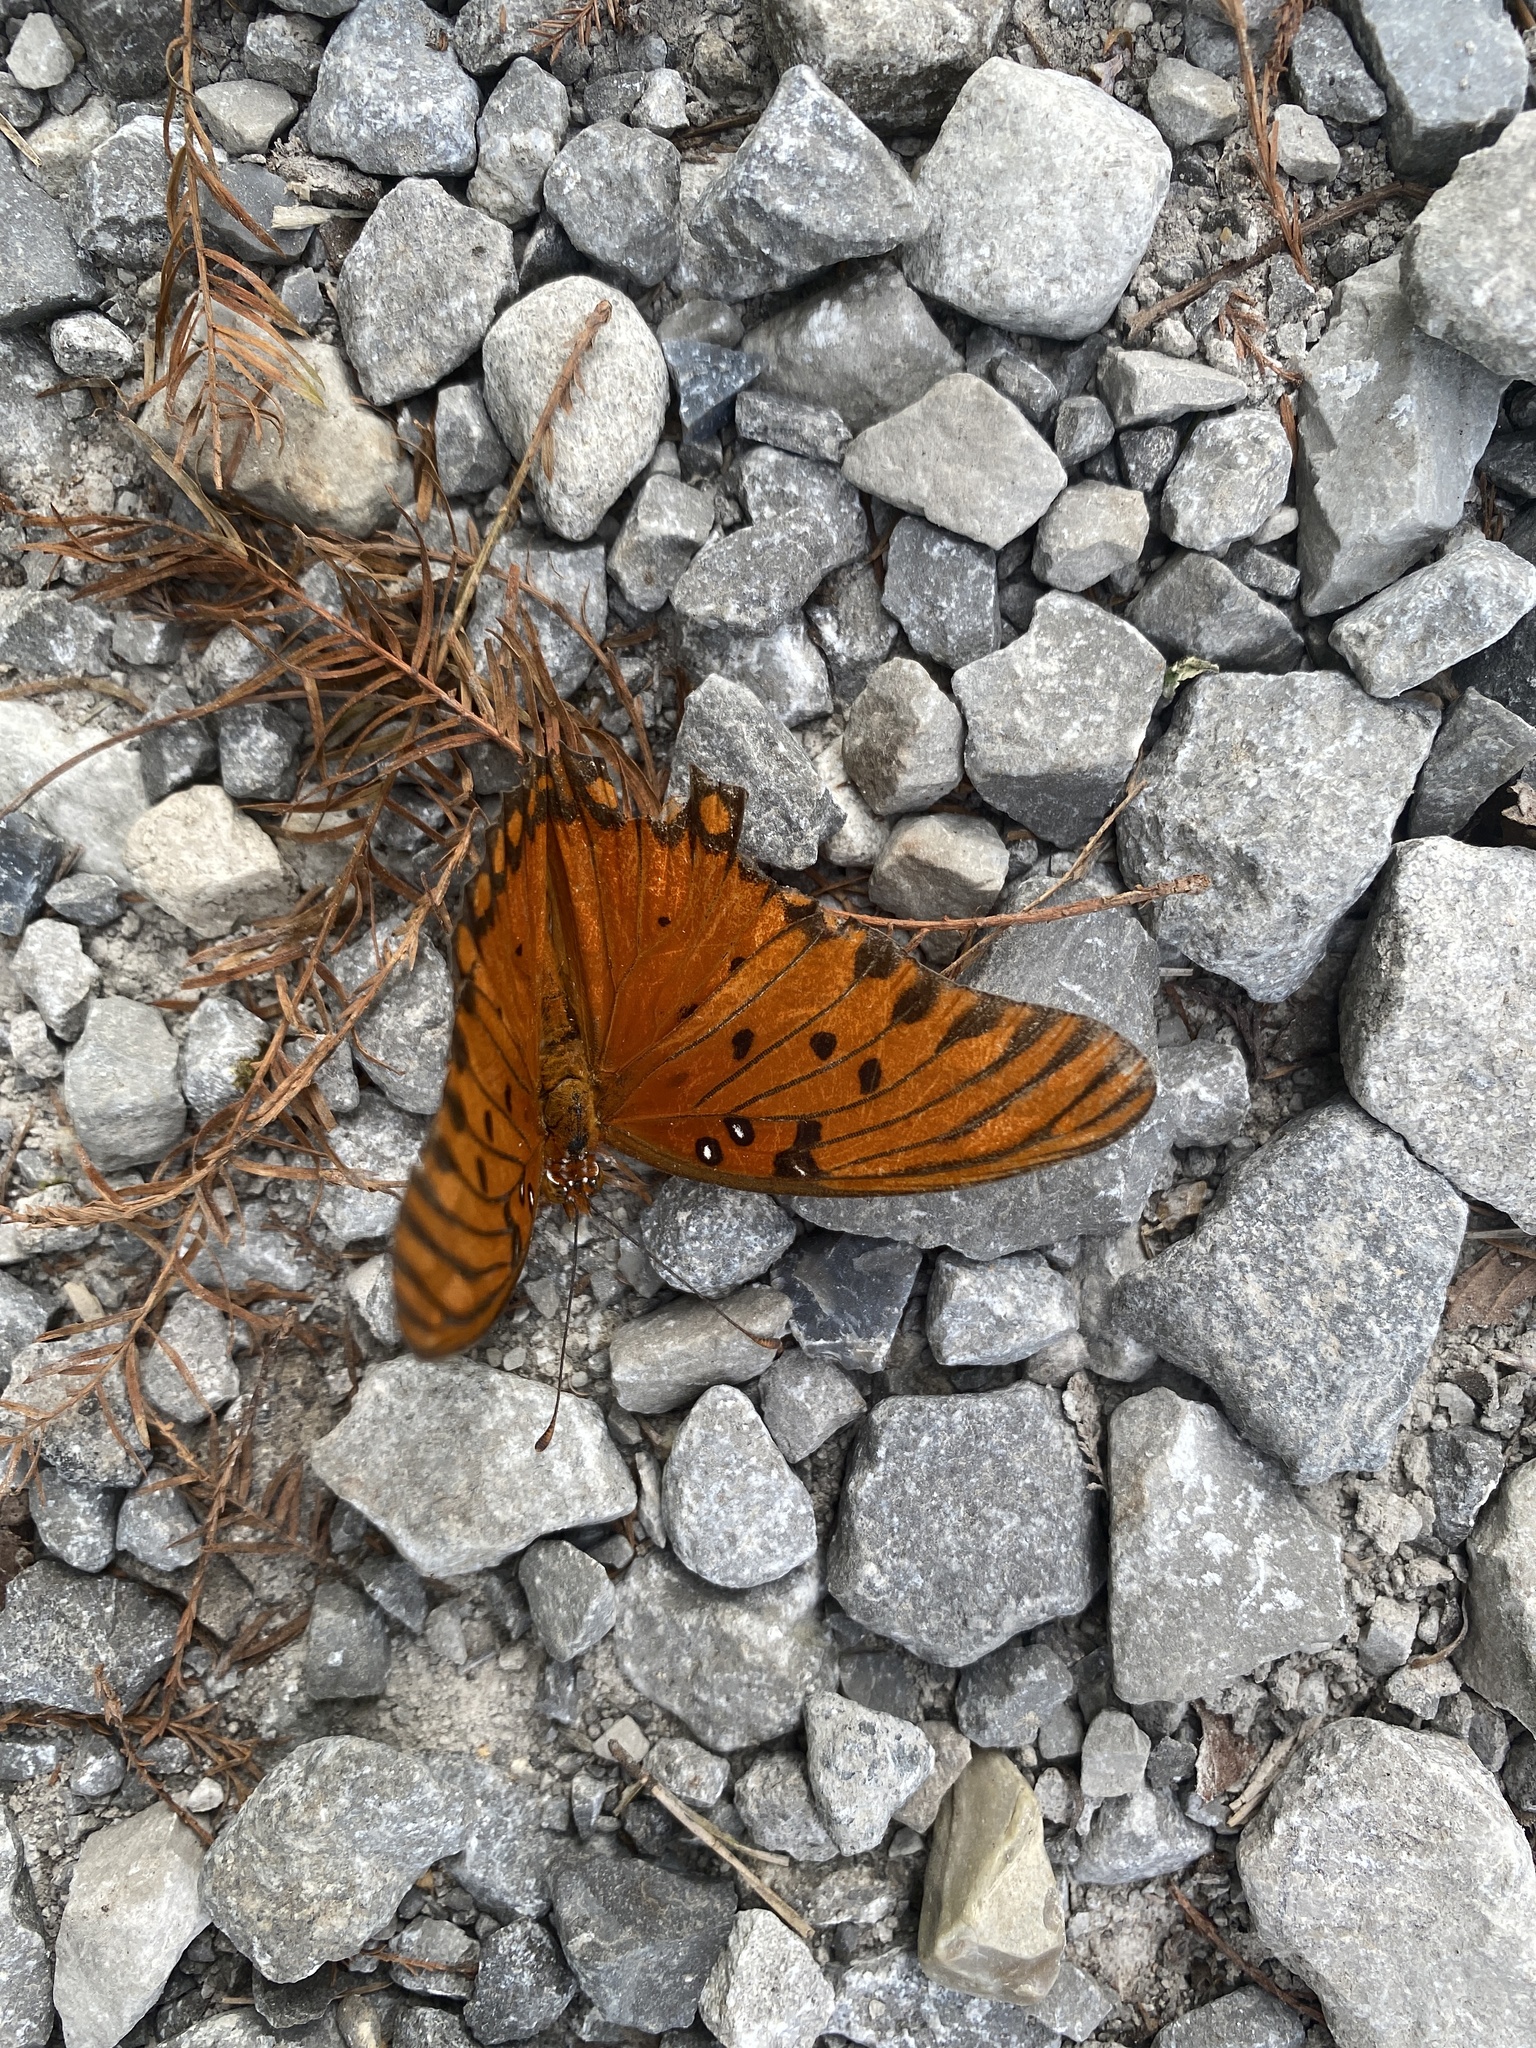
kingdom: Animalia
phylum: Arthropoda
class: Insecta
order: Lepidoptera
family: Nymphalidae
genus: Dione
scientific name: Dione vanillae
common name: Gulf fritillary
